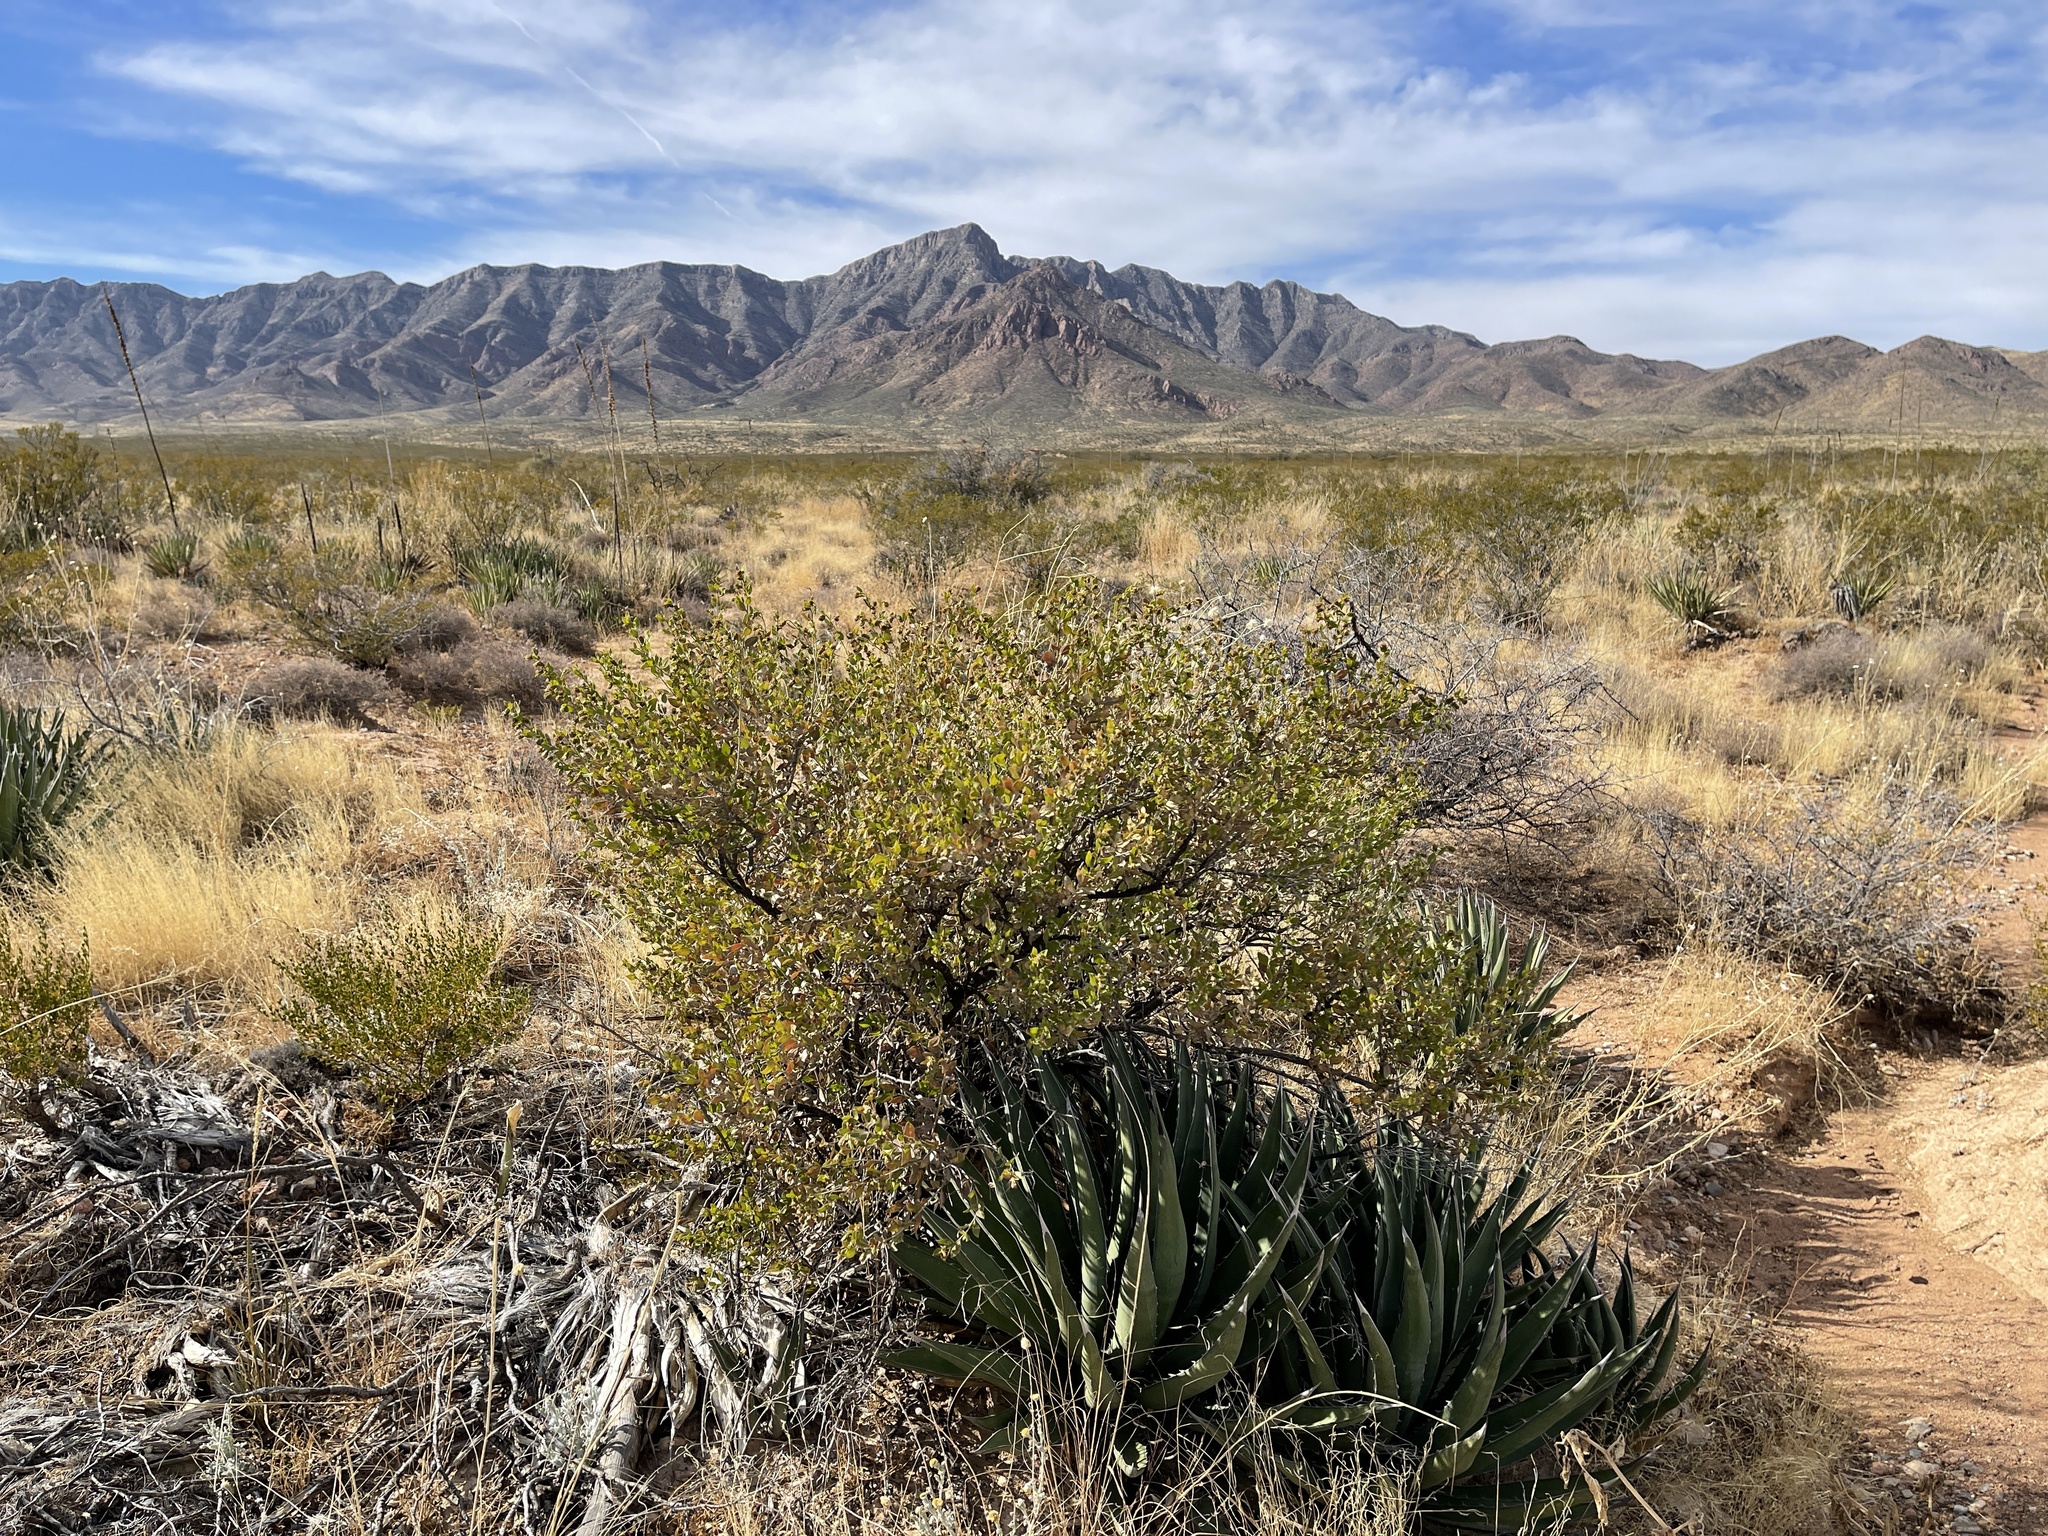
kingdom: Plantae
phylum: Tracheophyta
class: Magnoliopsida
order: Asterales
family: Asteraceae
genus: Flourensia
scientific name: Flourensia cernua
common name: Varnishbush
